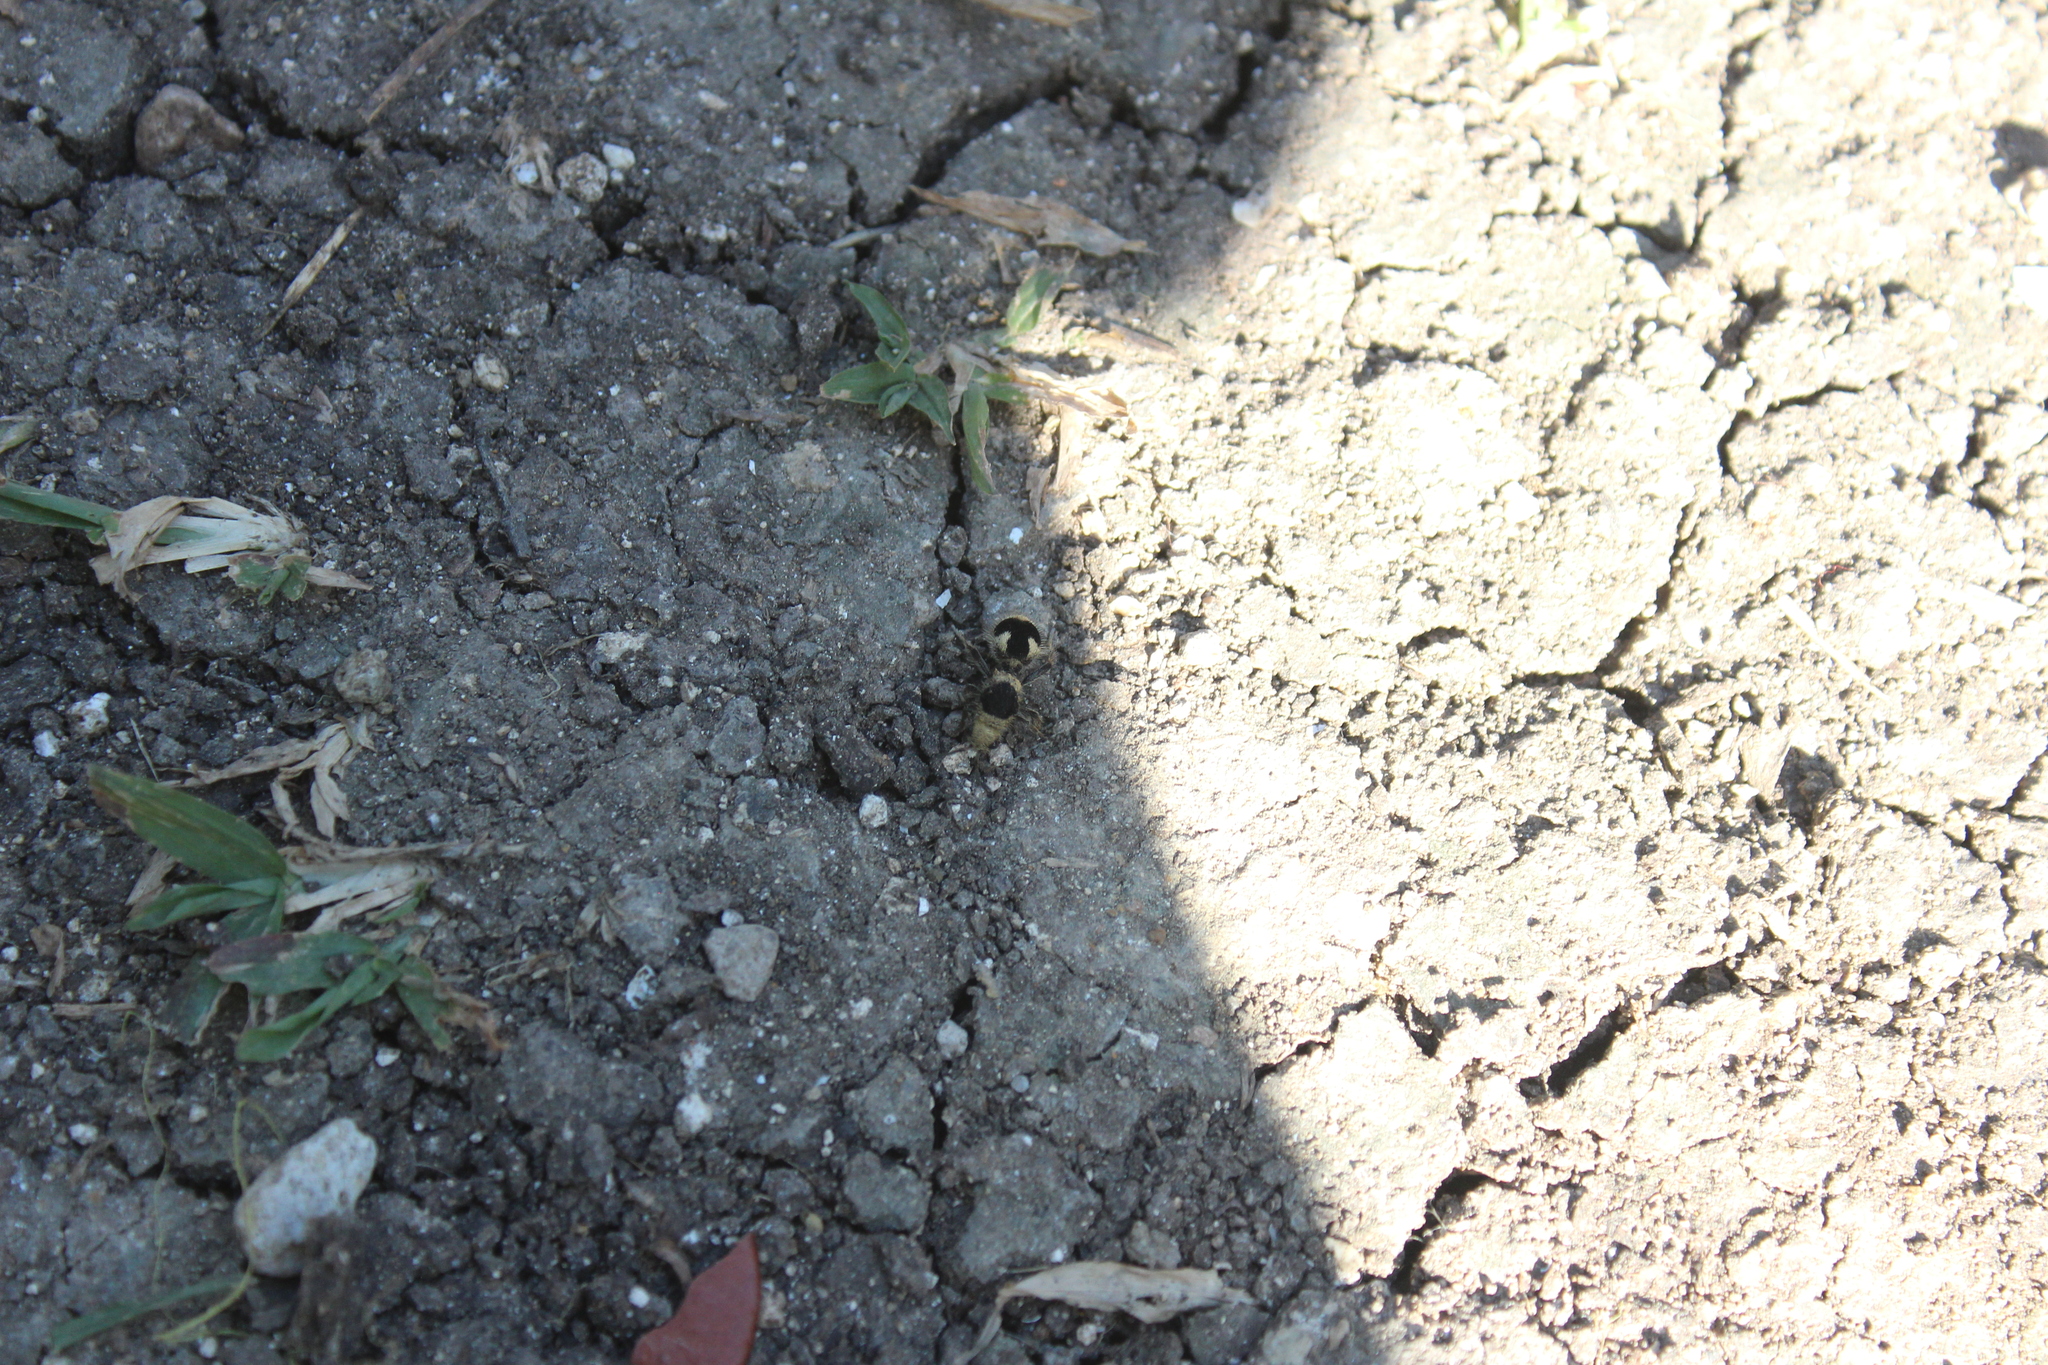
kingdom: Animalia
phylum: Arthropoda
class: Insecta
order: Hymenoptera
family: Mutillidae
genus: Dasymutilla
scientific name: Dasymutilla
